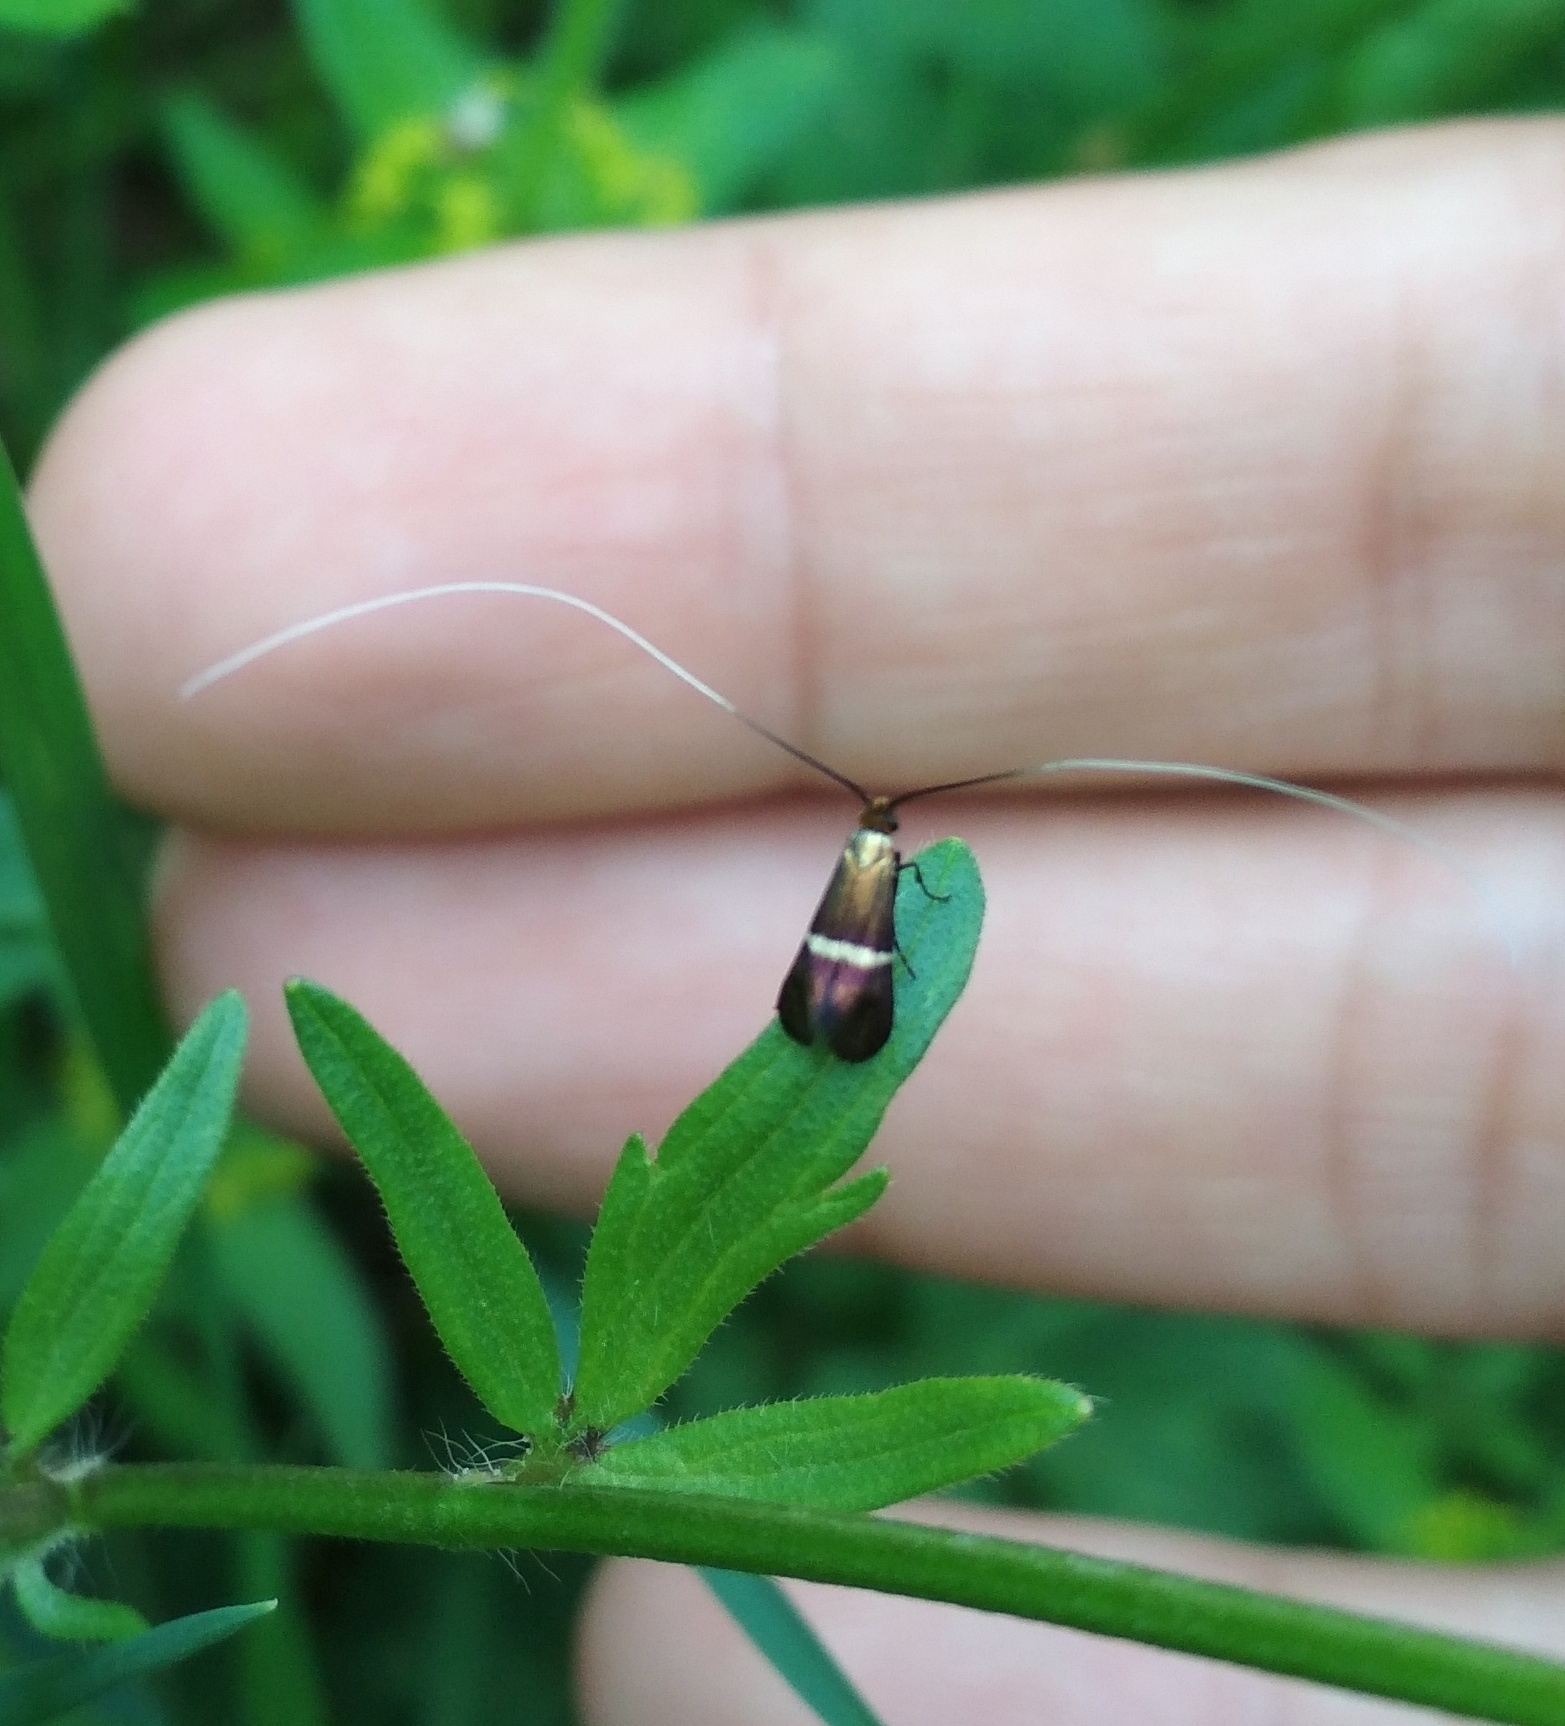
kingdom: Animalia
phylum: Arthropoda
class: Insecta
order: Lepidoptera
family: Adelidae
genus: Adela
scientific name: Adela australis
